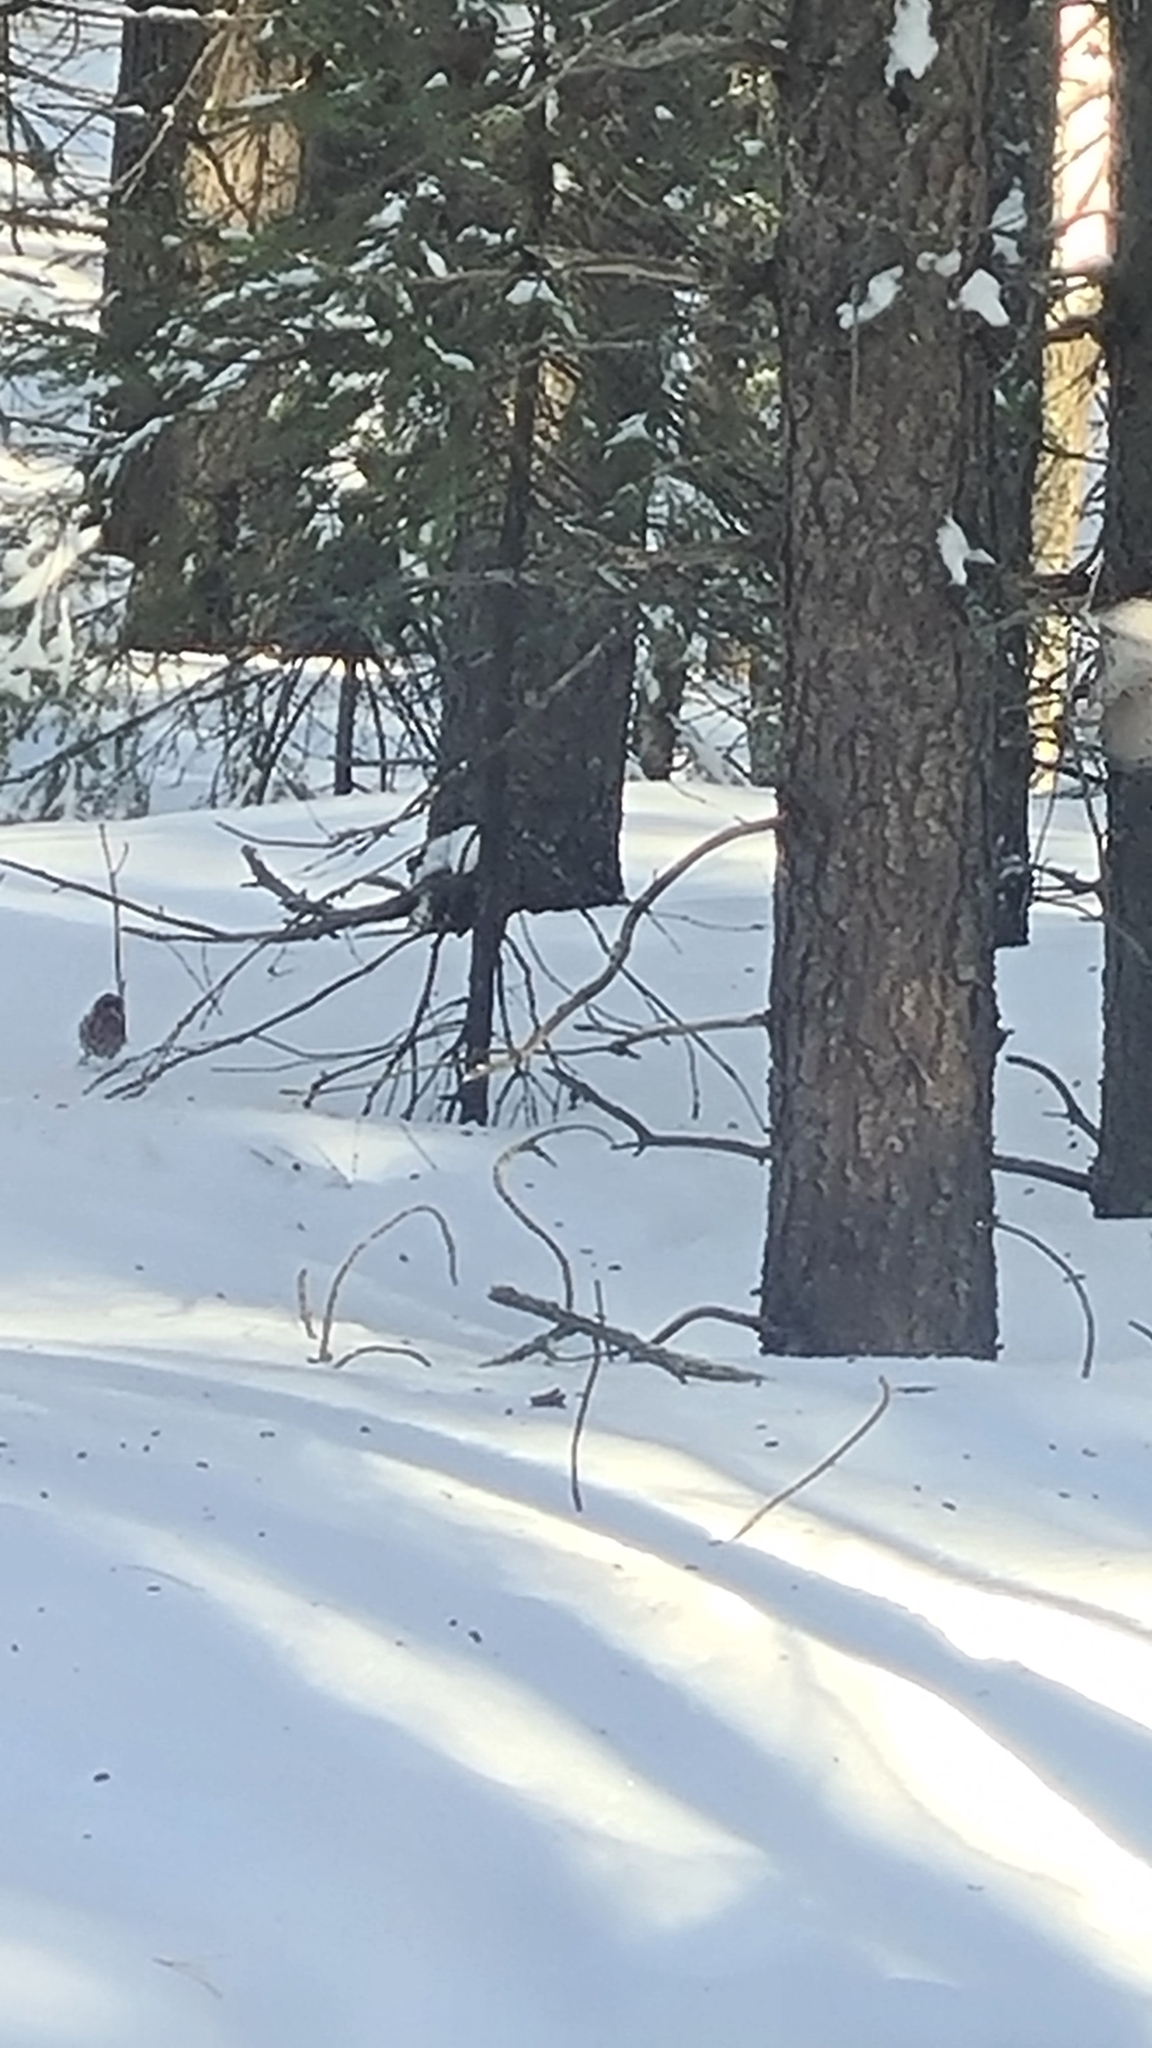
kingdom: Animalia
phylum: Chordata
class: Aves
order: Passeriformes
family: Fringillidae
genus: Fringilla
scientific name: Fringilla coelebs
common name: Common chaffinch
